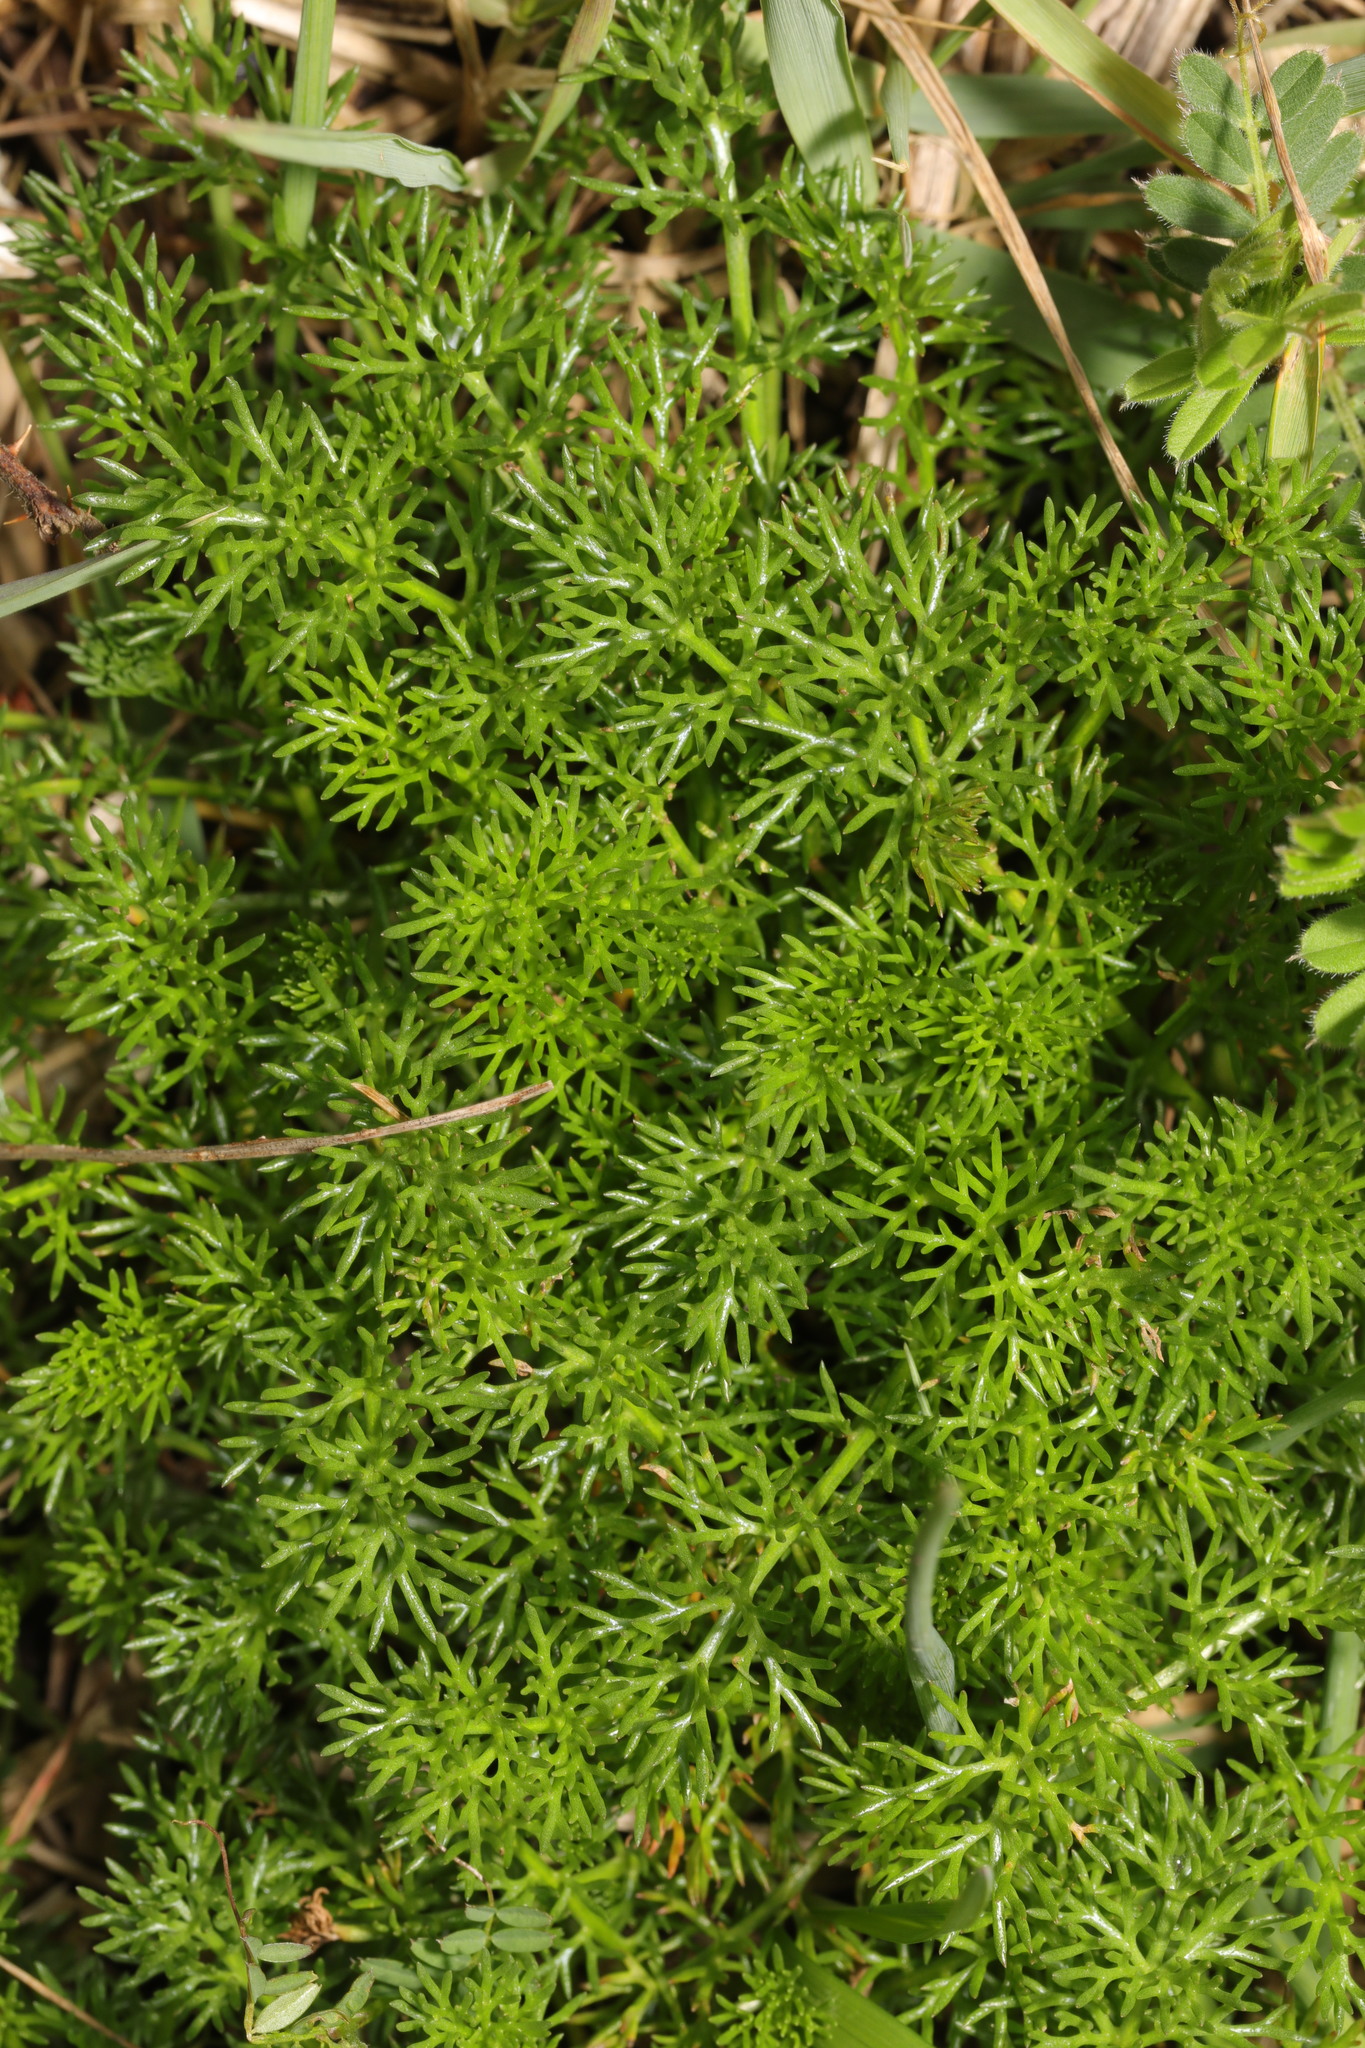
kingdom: Plantae
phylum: Tracheophyta
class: Magnoliopsida
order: Asterales
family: Asteraceae
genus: Tripleurospermum
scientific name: Tripleurospermum maritimum
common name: Sea mayweed
